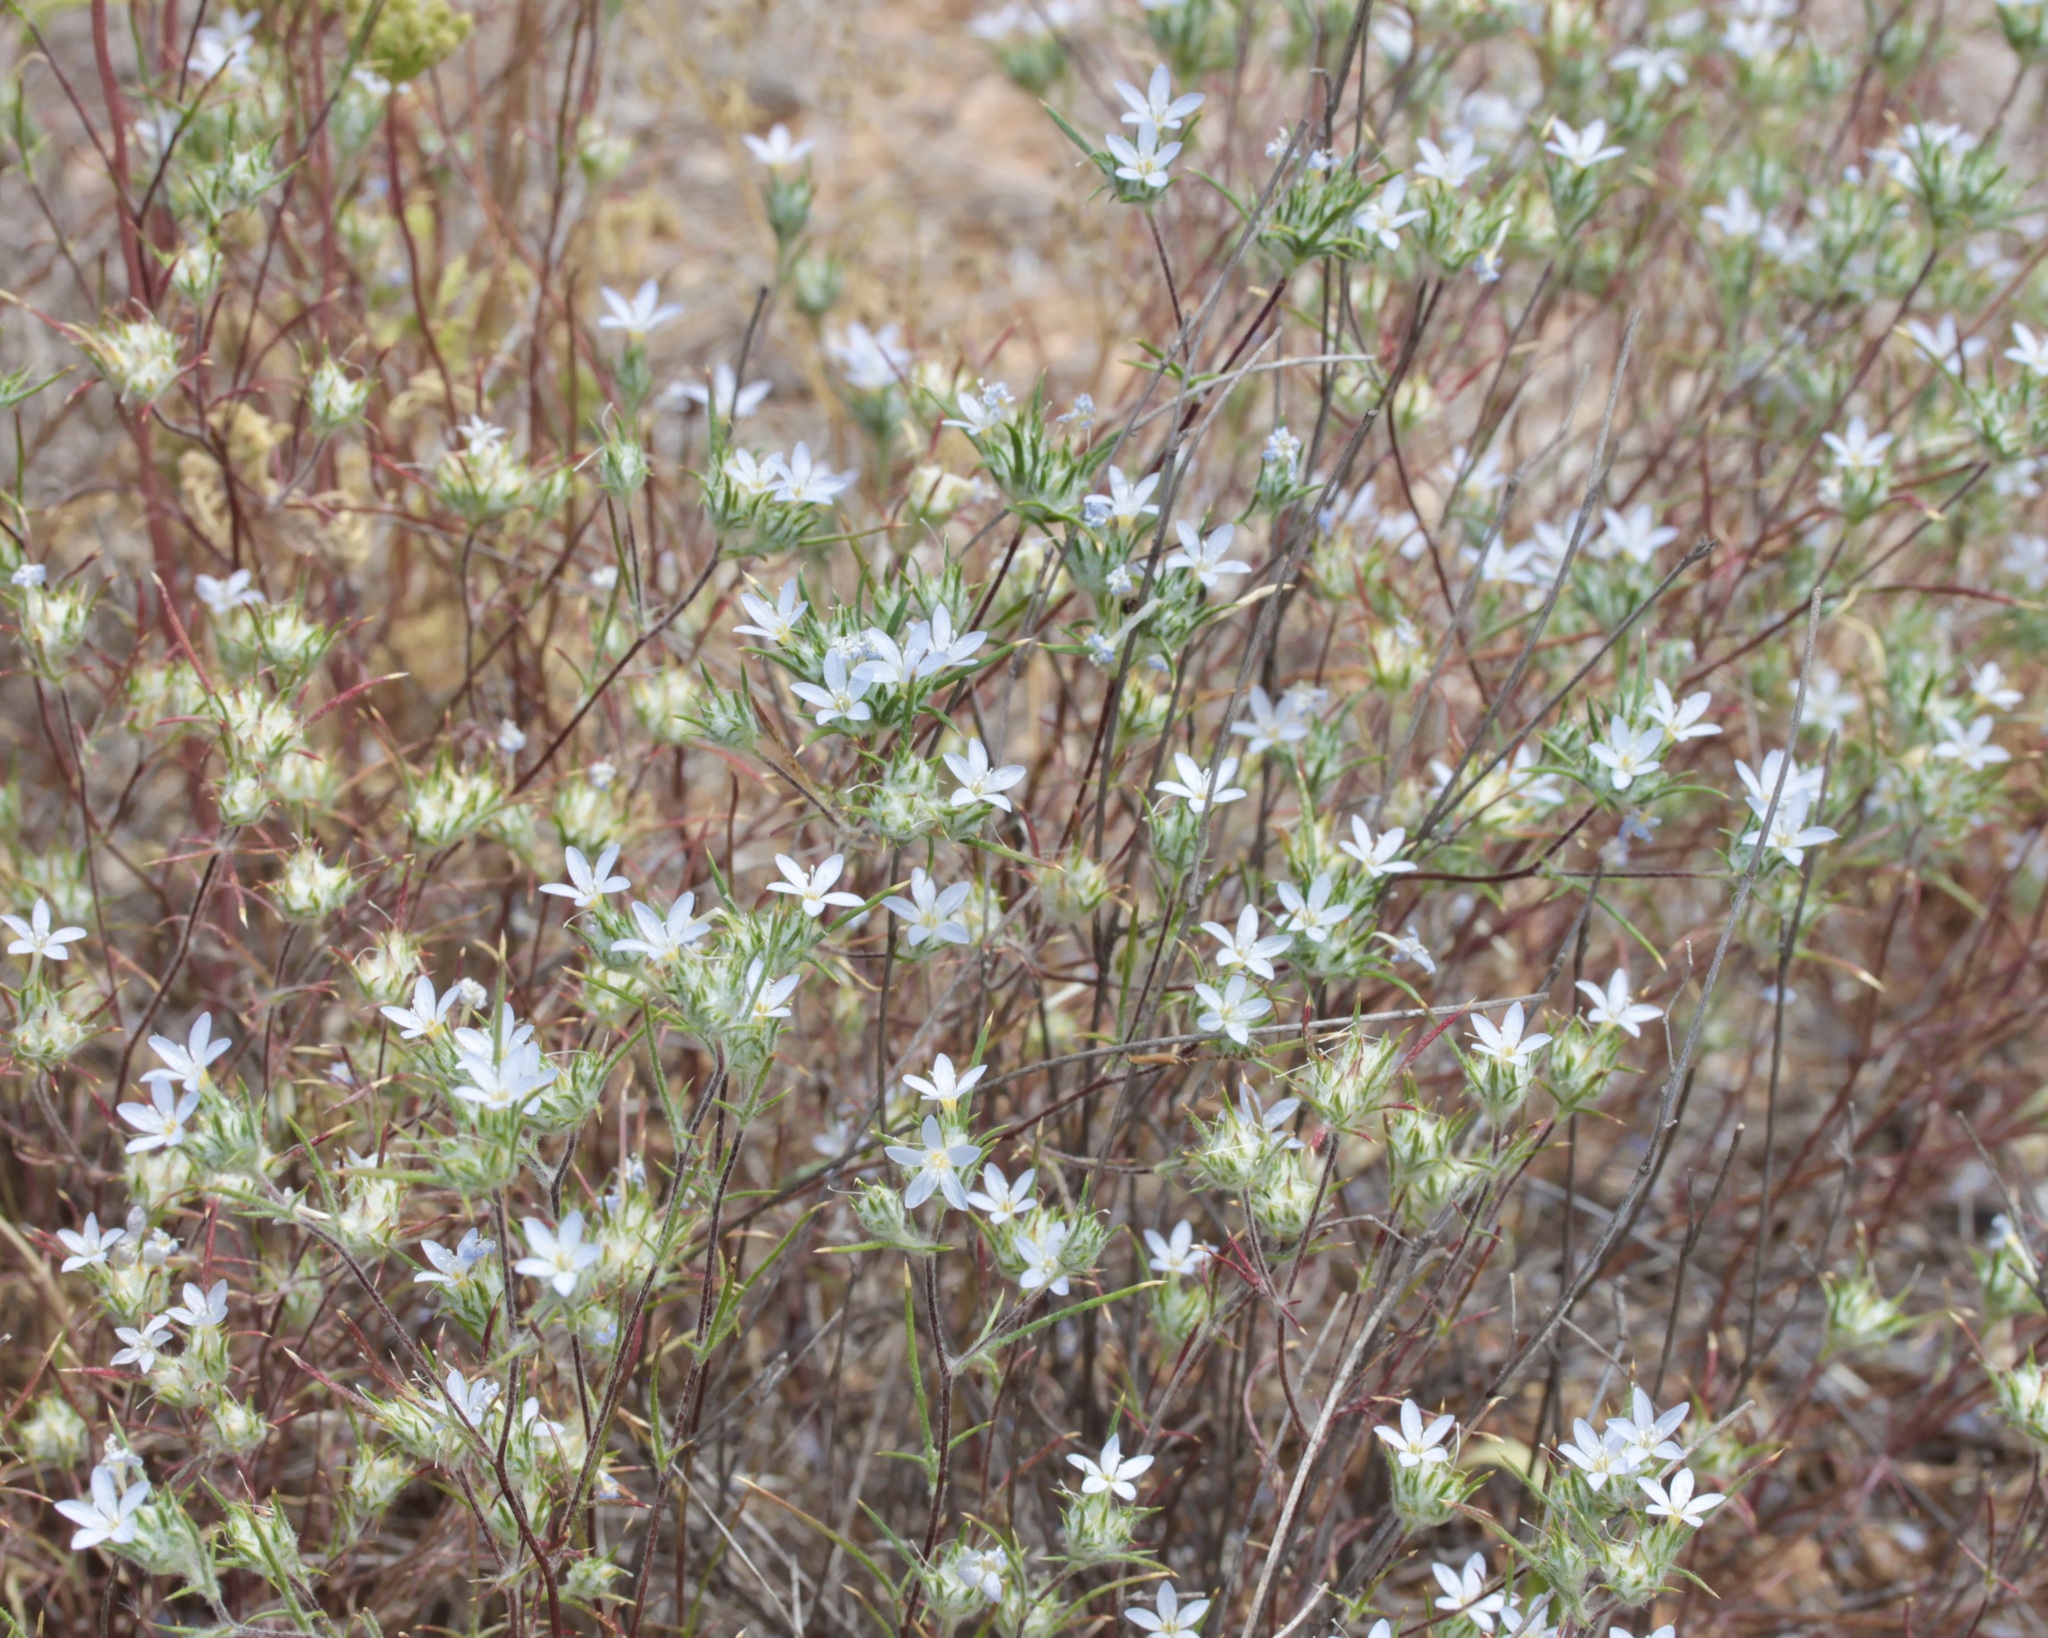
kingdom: Plantae
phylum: Tracheophyta
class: Magnoliopsida
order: Ericales
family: Polemoniaceae
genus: Eriastrum
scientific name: Eriastrum diffusum
